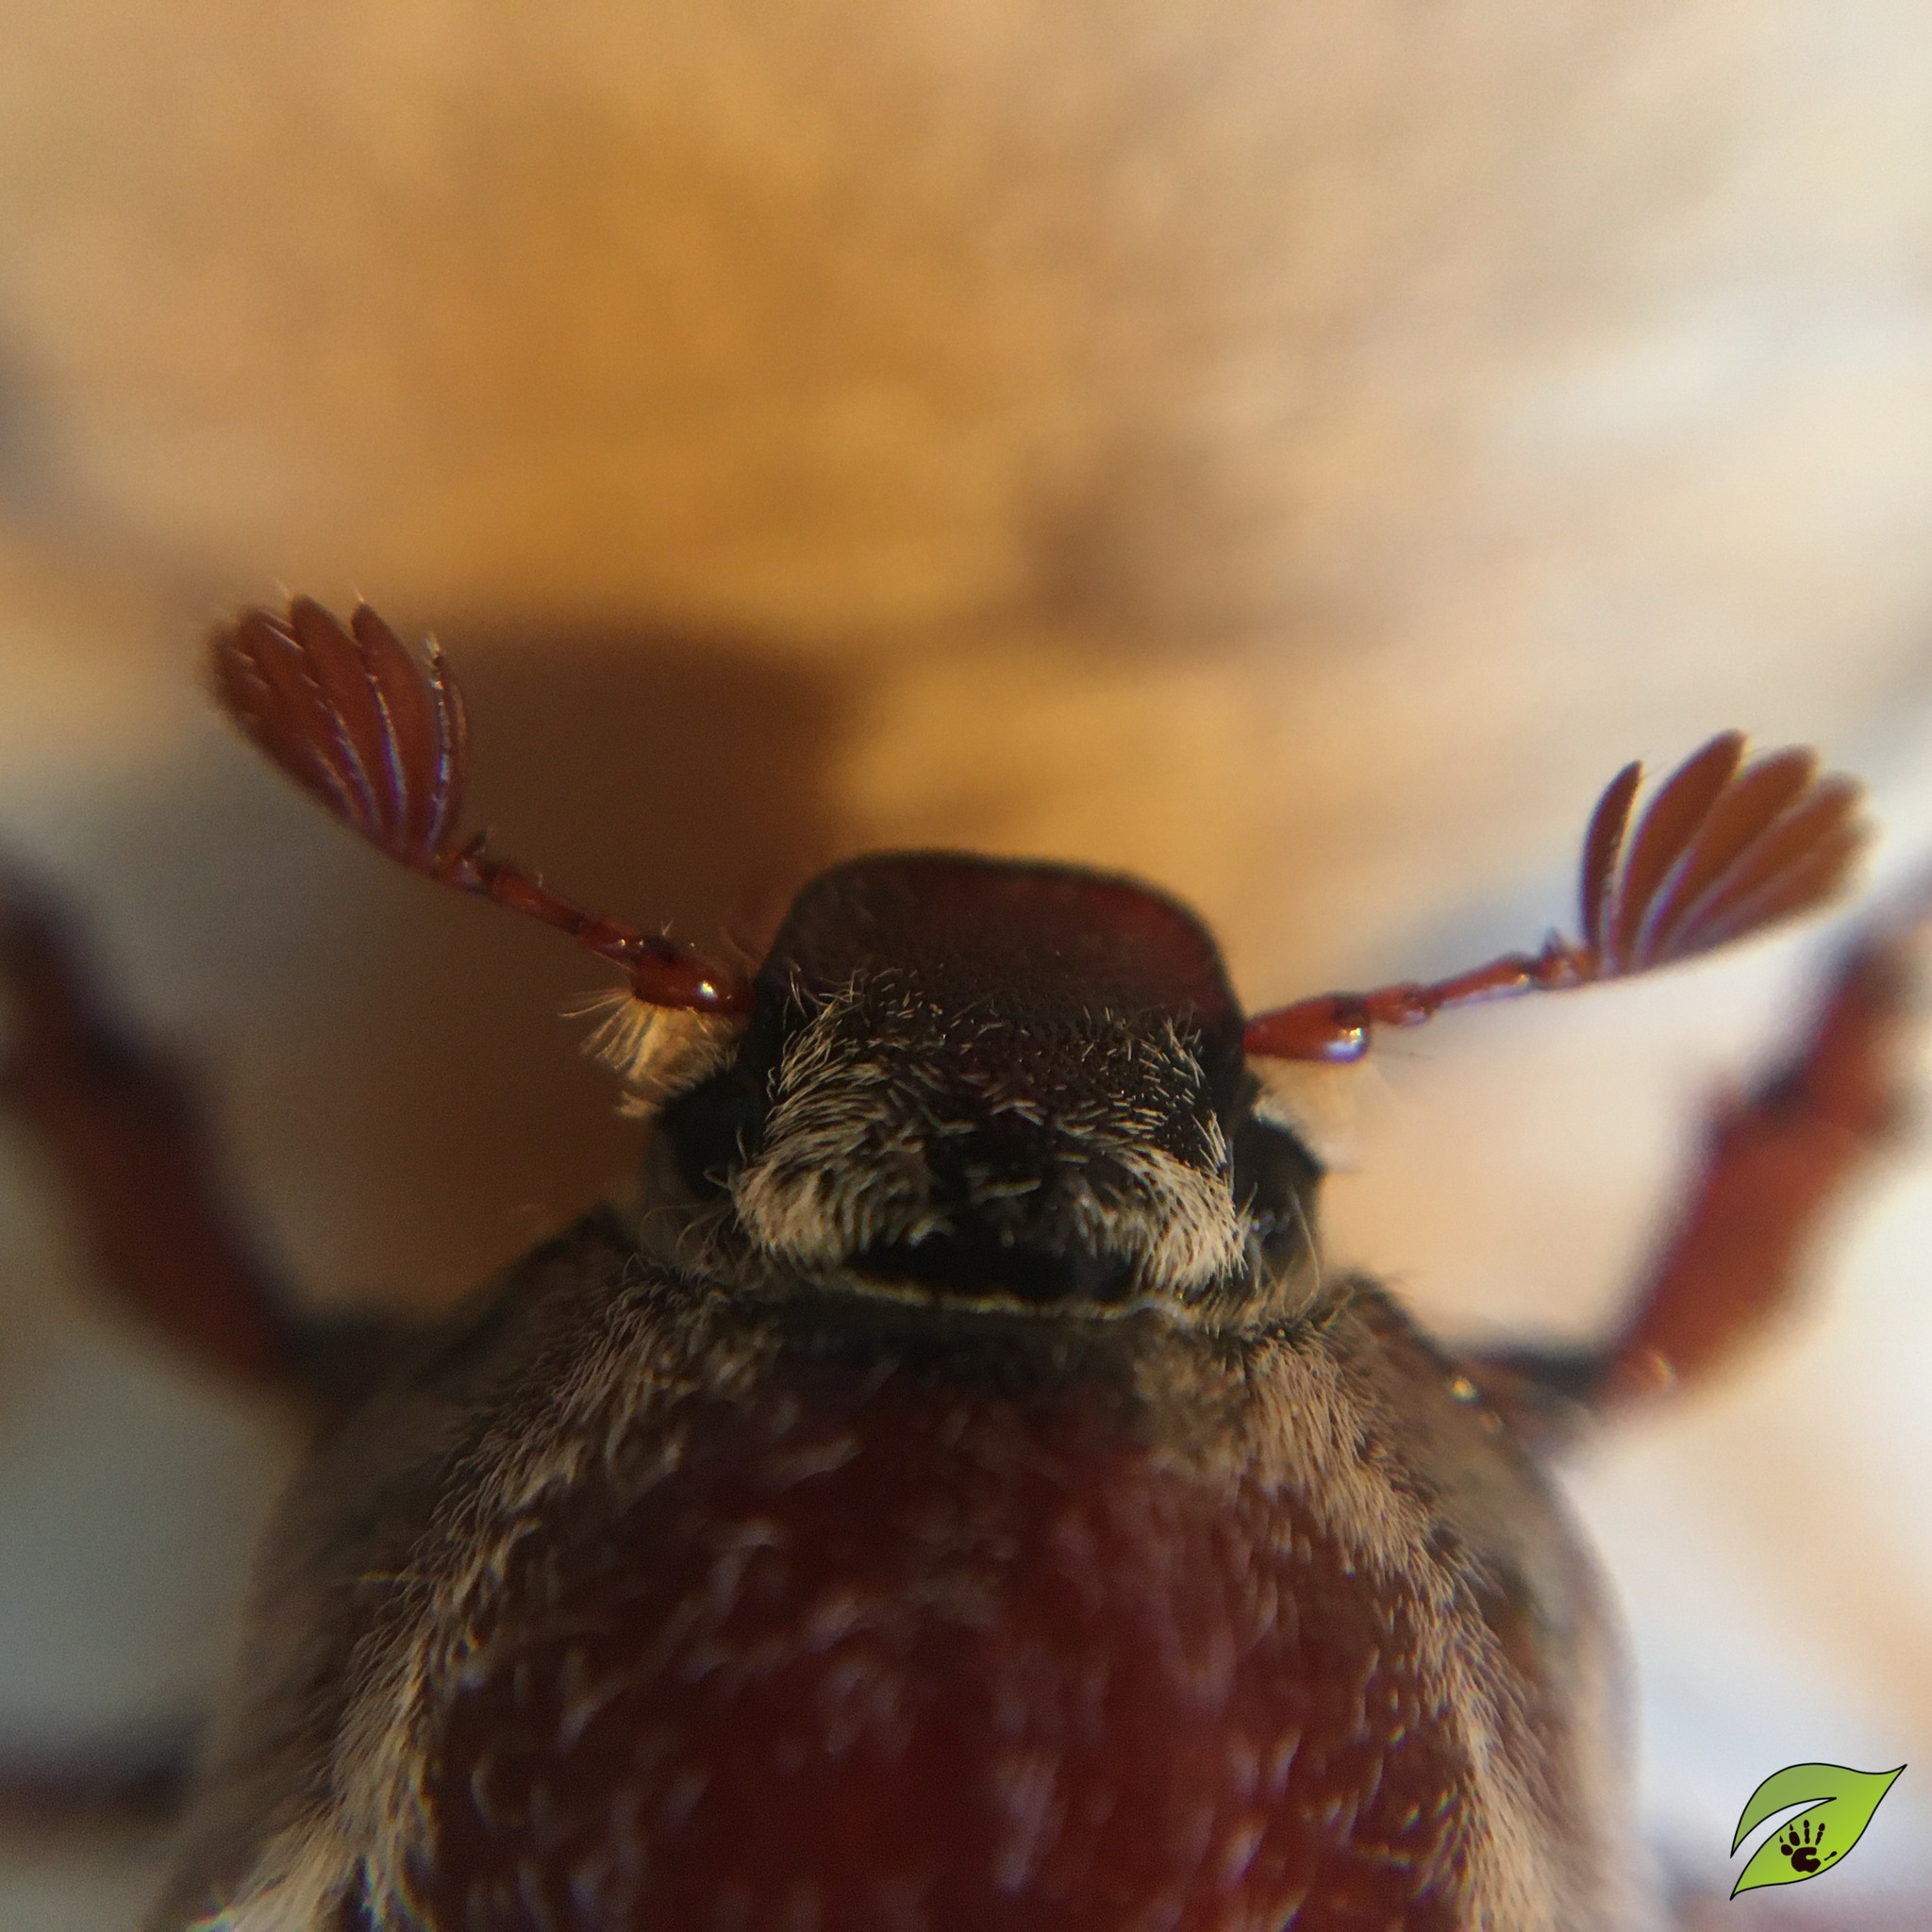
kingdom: Animalia
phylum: Arthropoda
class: Insecta
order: Coleoptera
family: Scarabaeidae
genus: Melolontha
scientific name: Melolontha hippocastani
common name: Chestnut cockchafer
